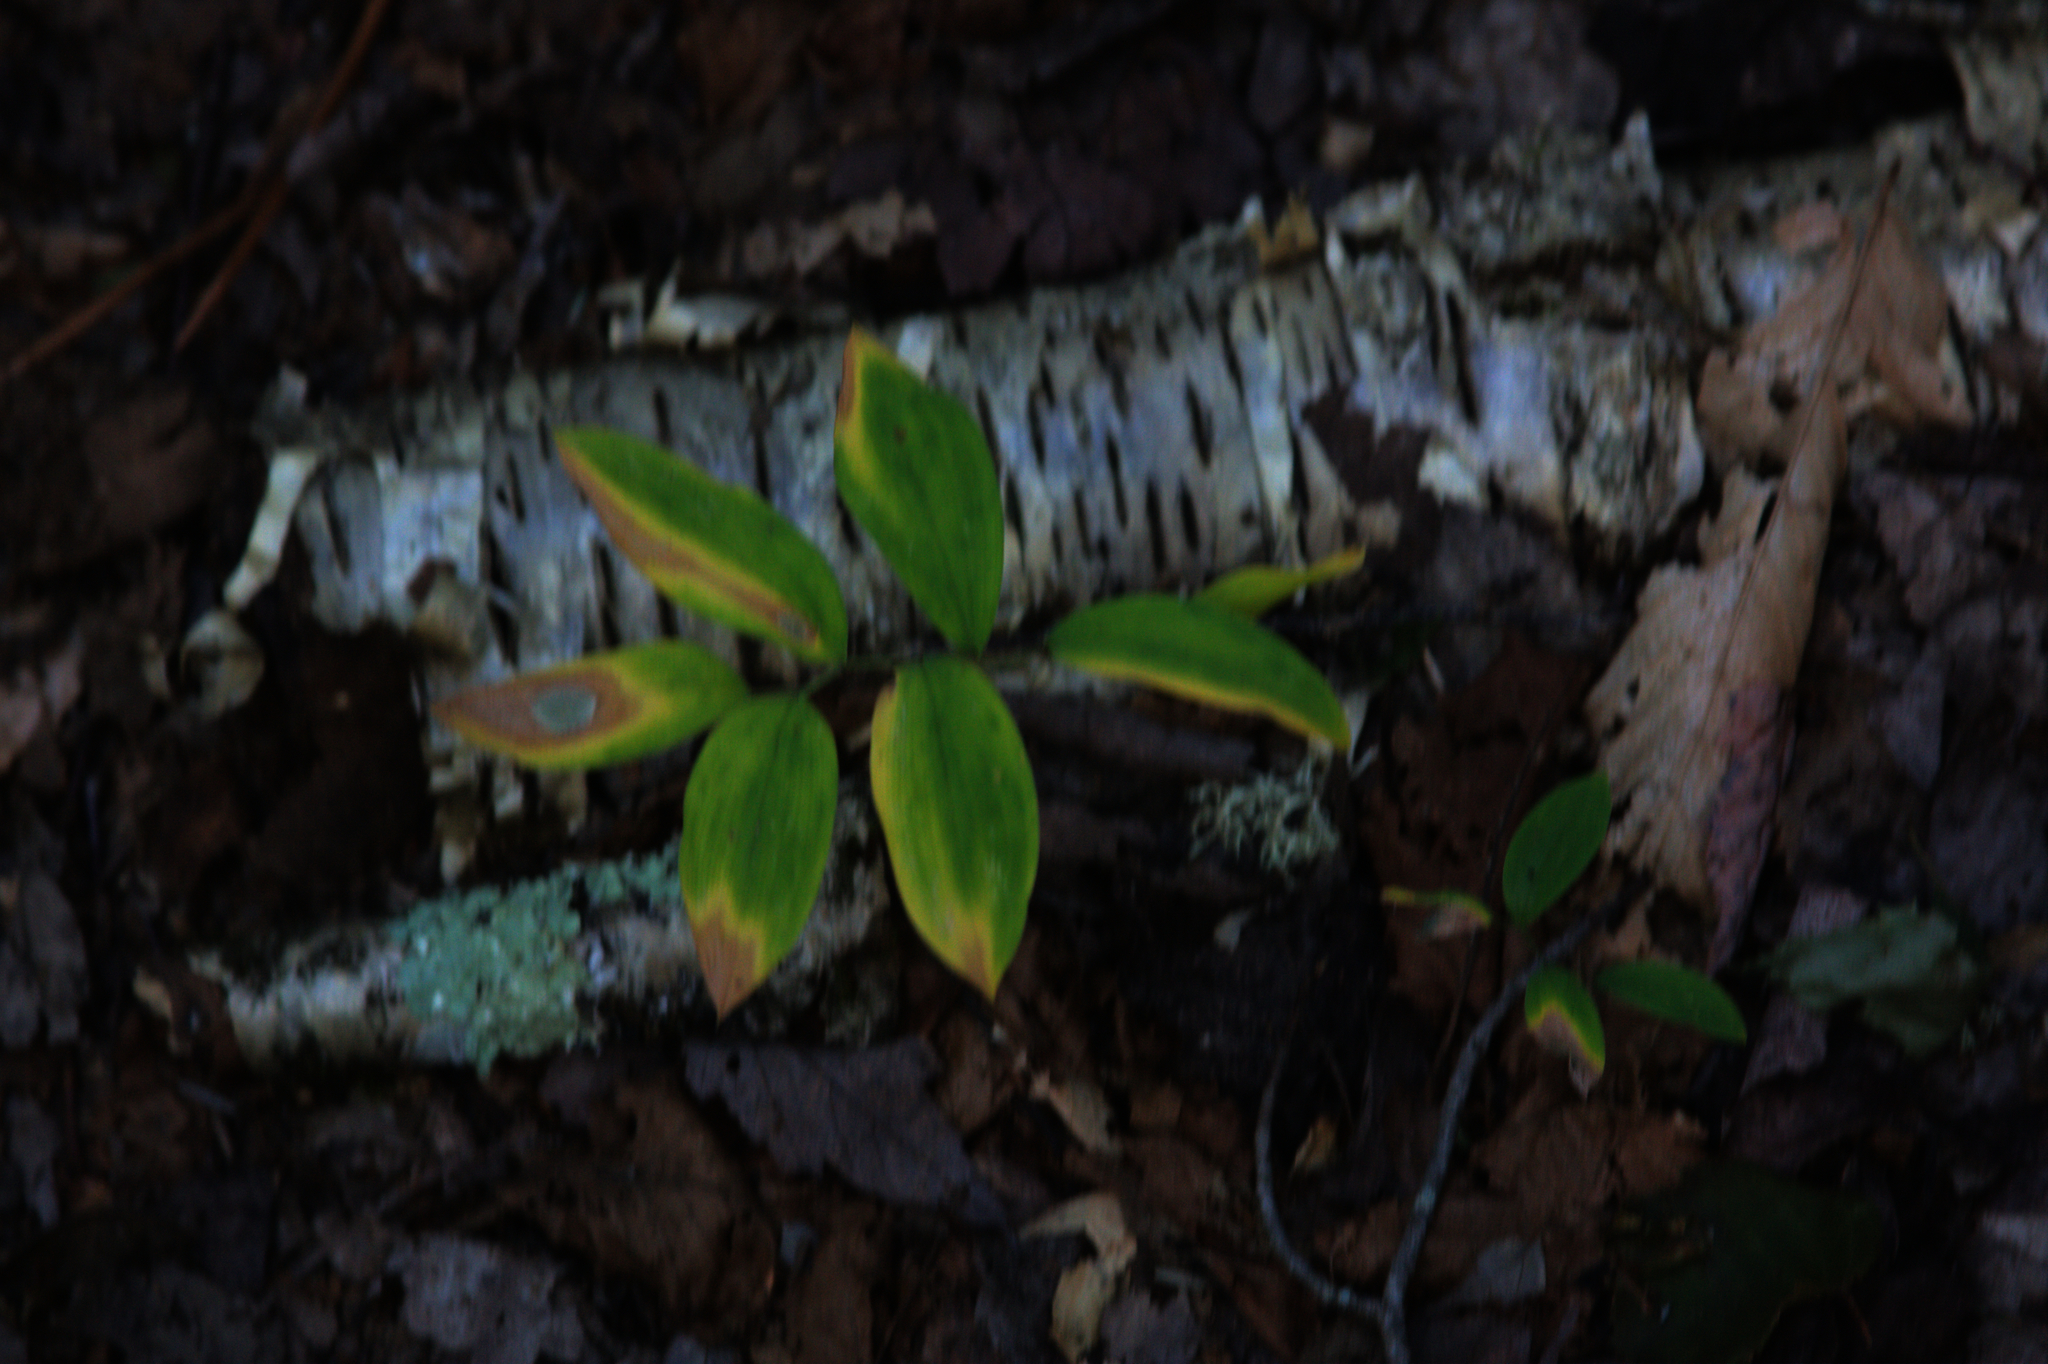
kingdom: Plantae
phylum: Tracheophyta
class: Liliopsida
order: Liliales
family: Colchicaceae
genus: Uvularia
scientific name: Uvularia sessilifolia
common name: Straw-lily
